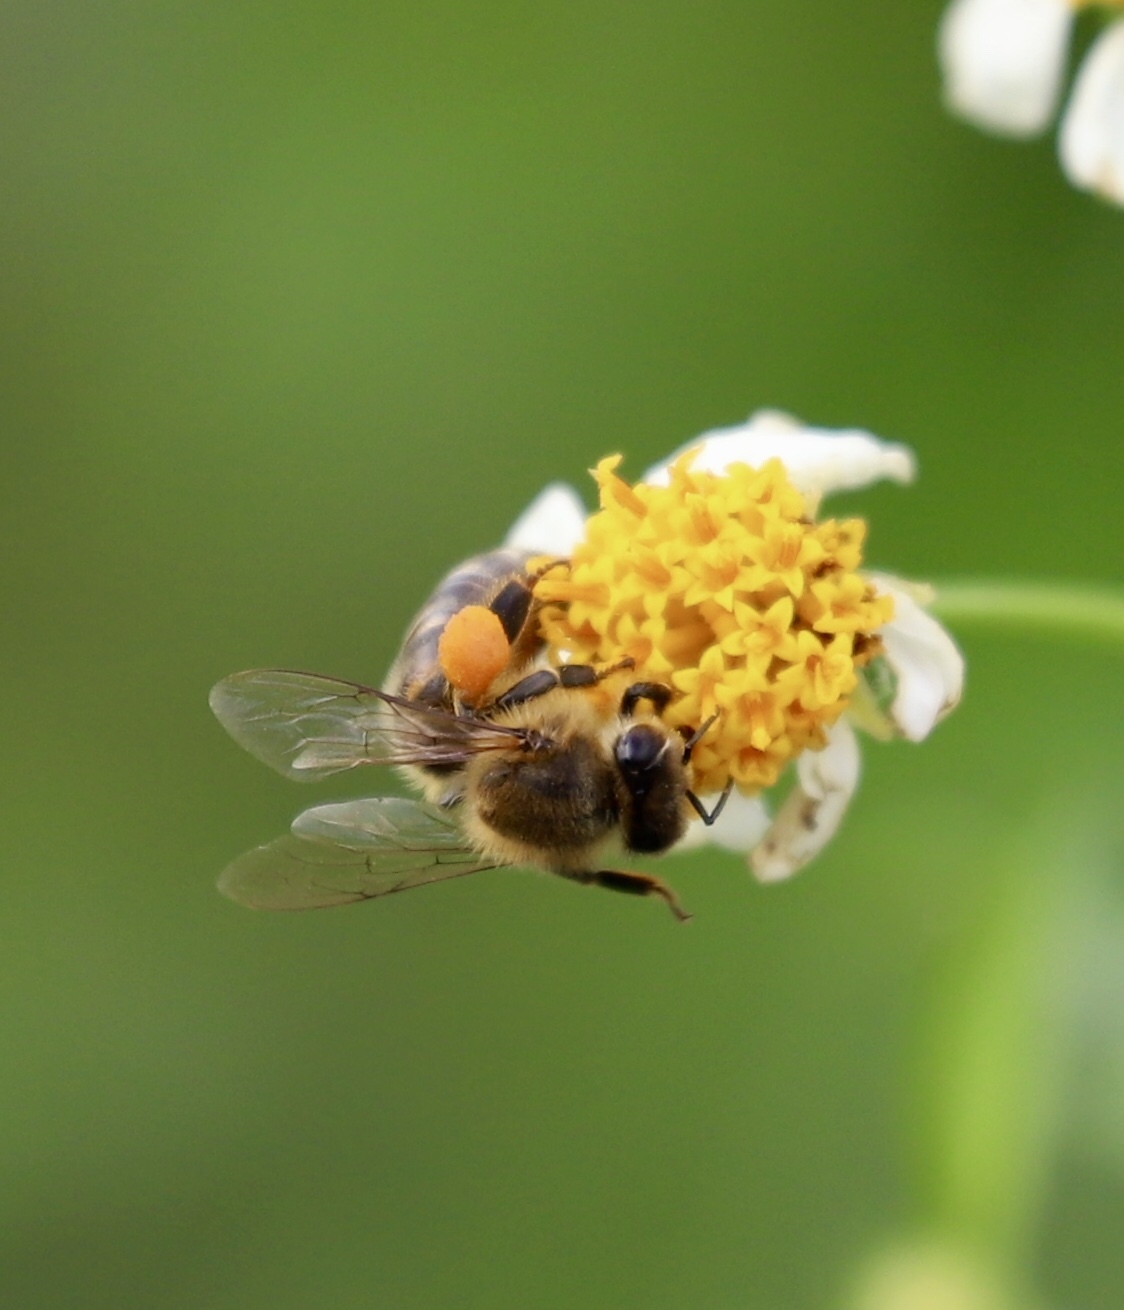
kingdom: Animalia
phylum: Arthropoda
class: Insecta
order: Hymenoptera
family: Apidae
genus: Apis
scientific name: Apis mellifera
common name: Honey bee
